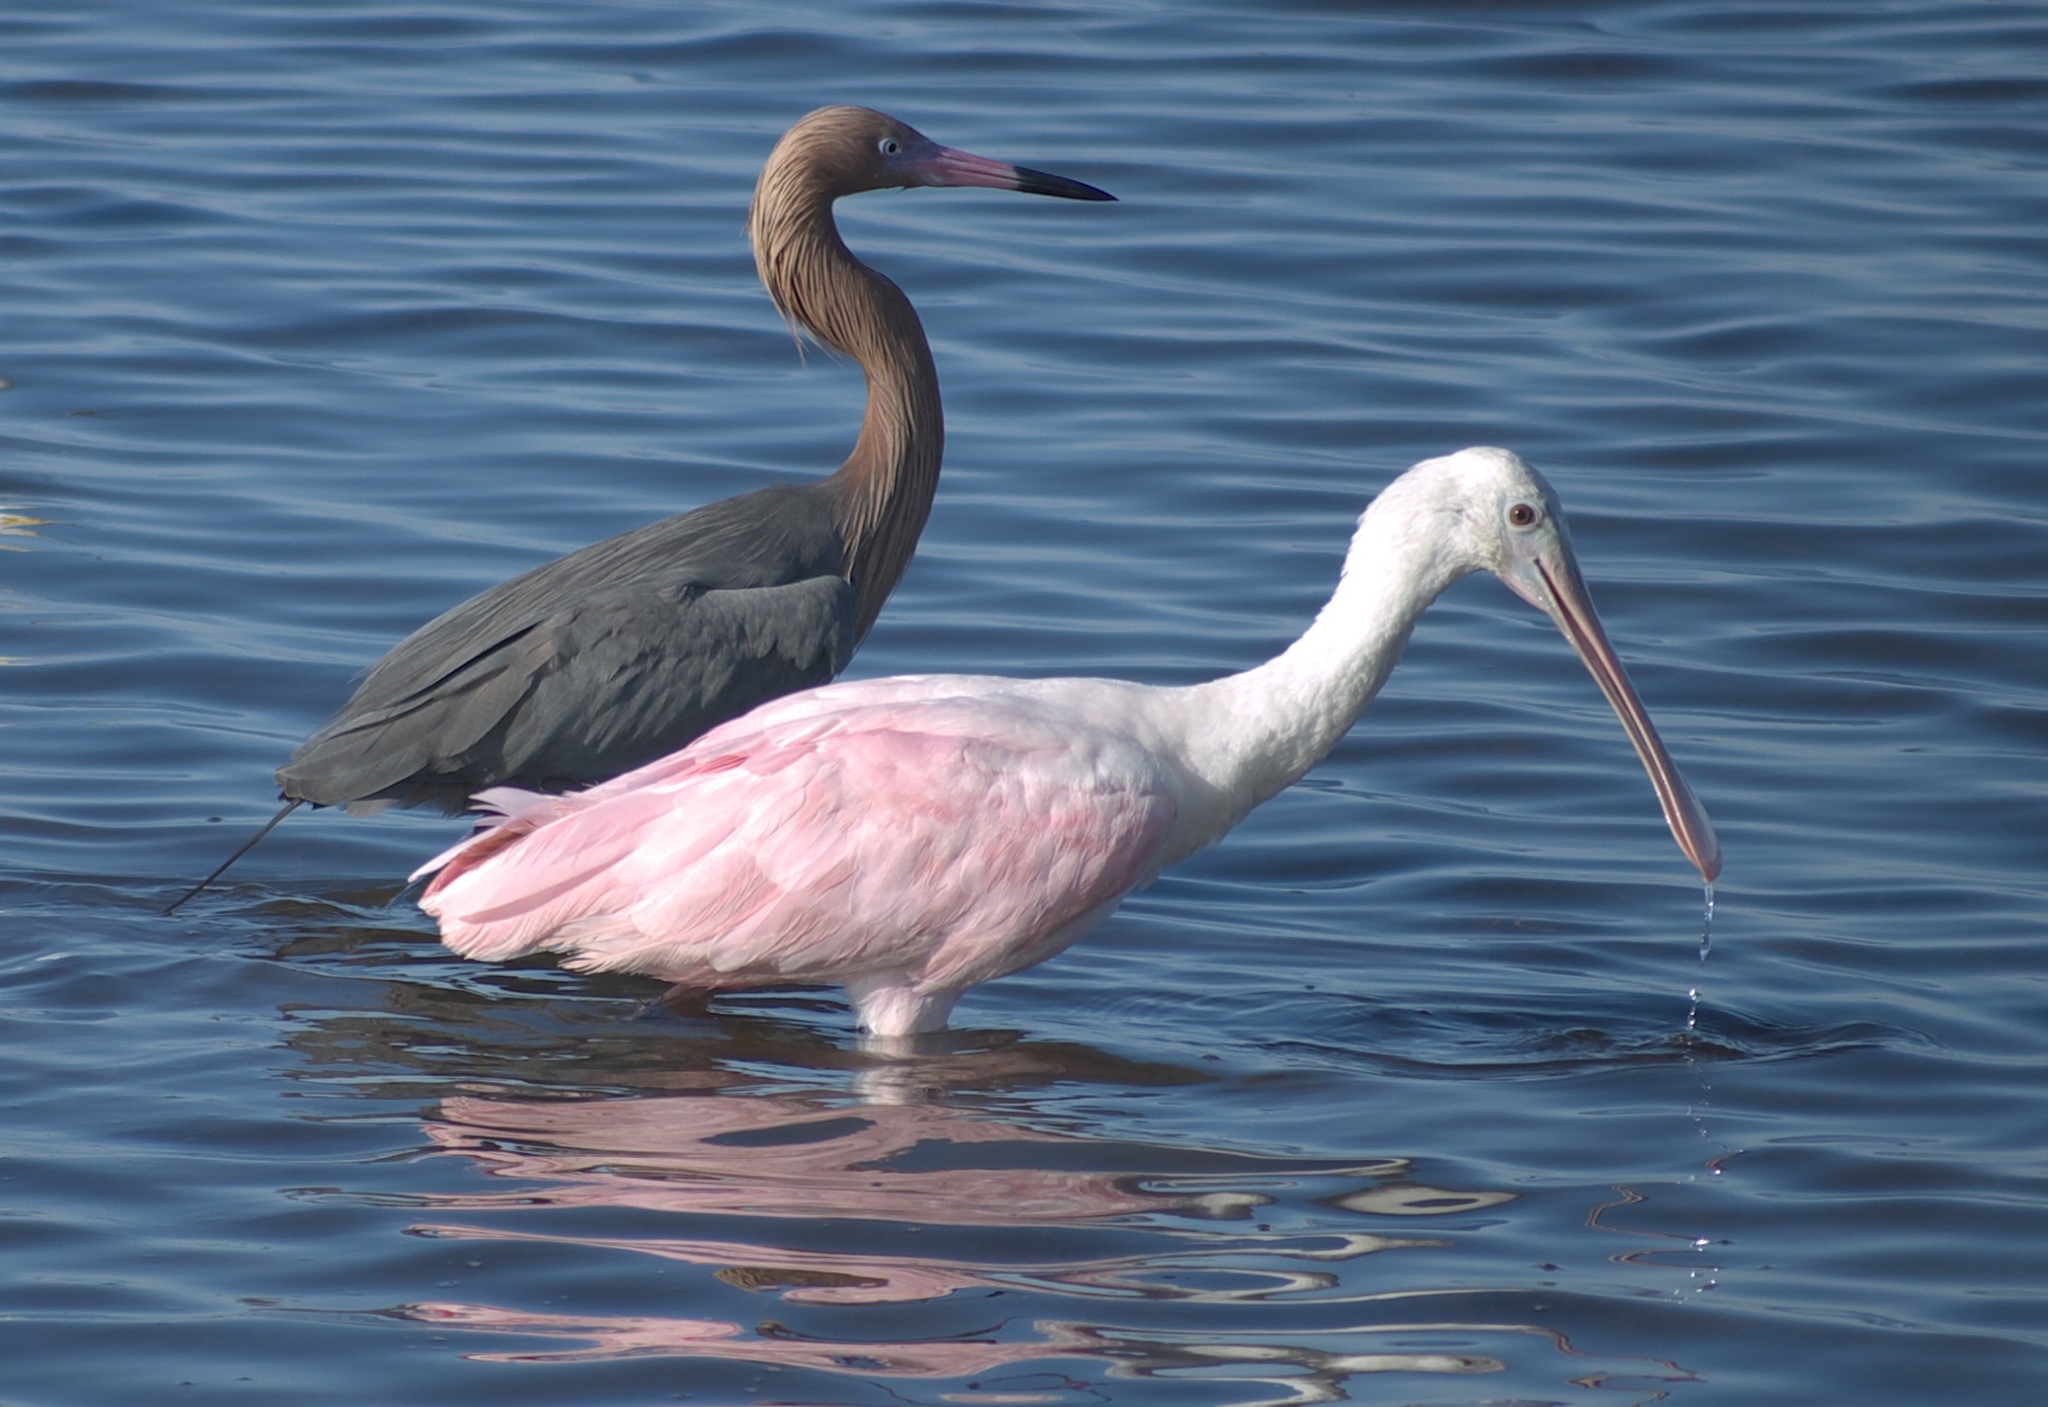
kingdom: Animalia
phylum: Chordata
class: Aves
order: Pelecaniformes
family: Ardeidae
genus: Egretta
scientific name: Egretta rufescens
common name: Reddish egret
